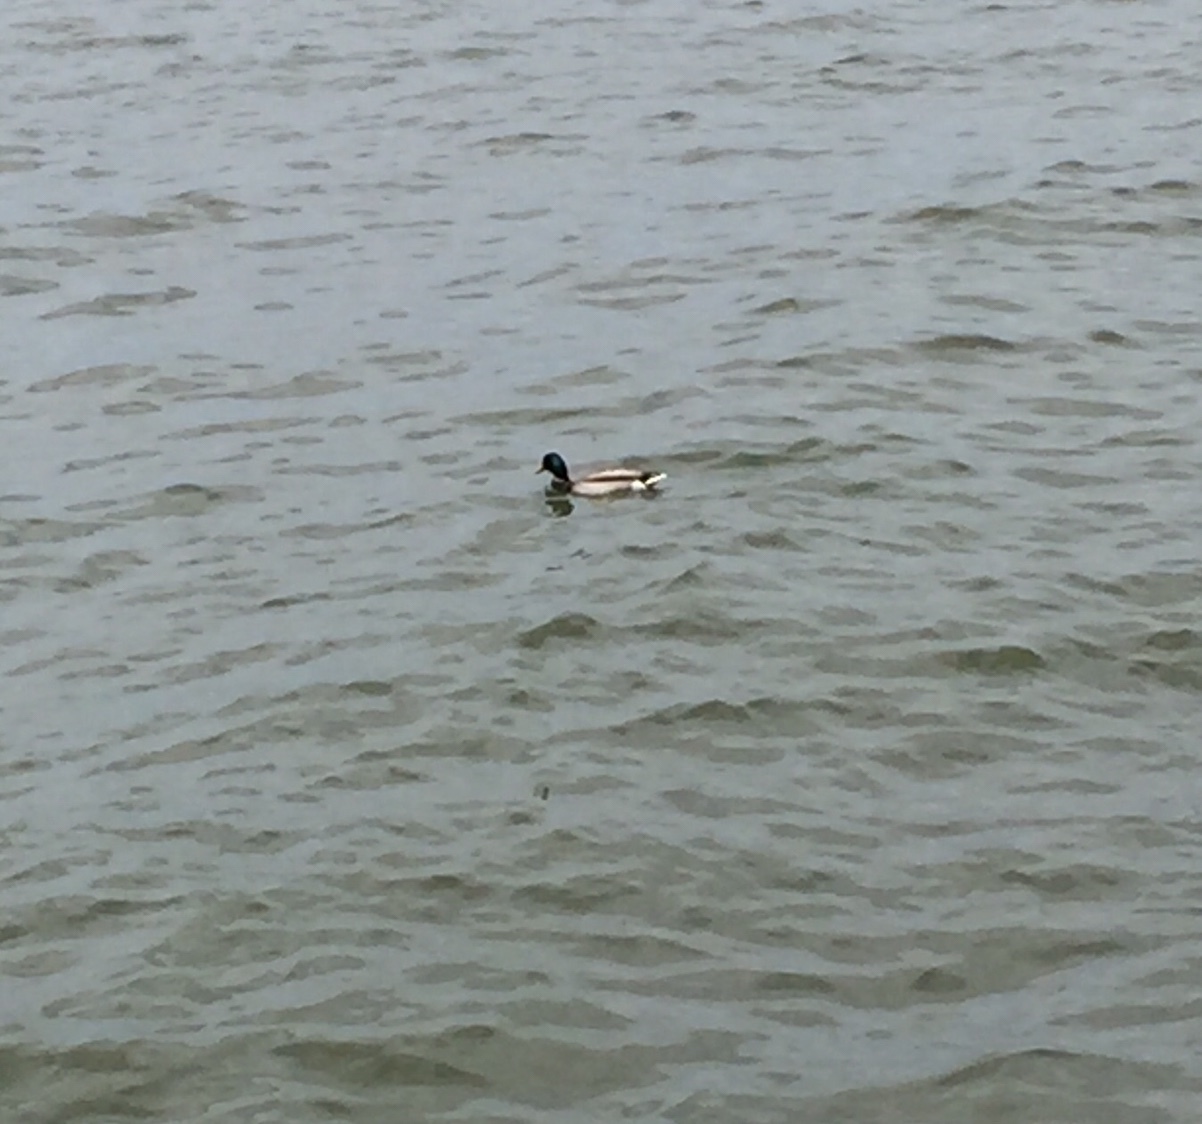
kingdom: Animalia
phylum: Chordata
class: Aves
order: Anseriformes
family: Anatidae
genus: Anas
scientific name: Anas platyrhynchos
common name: Mallard
